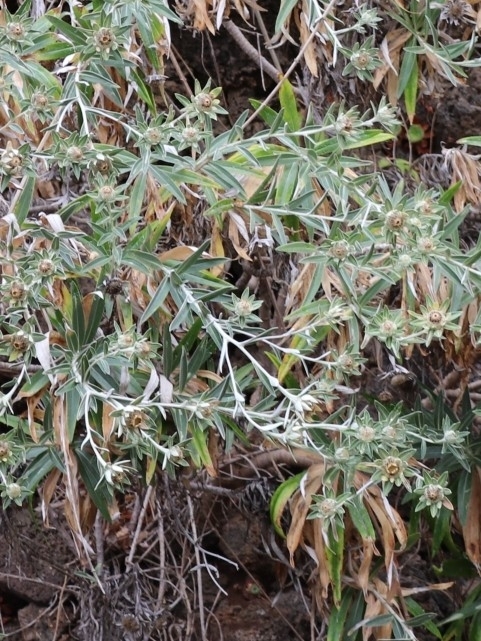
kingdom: Plantae
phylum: Tracheophyta
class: Magnoliopsida
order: Asterales
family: Asteraceae
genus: Carlina
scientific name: Carlina salicifolia
